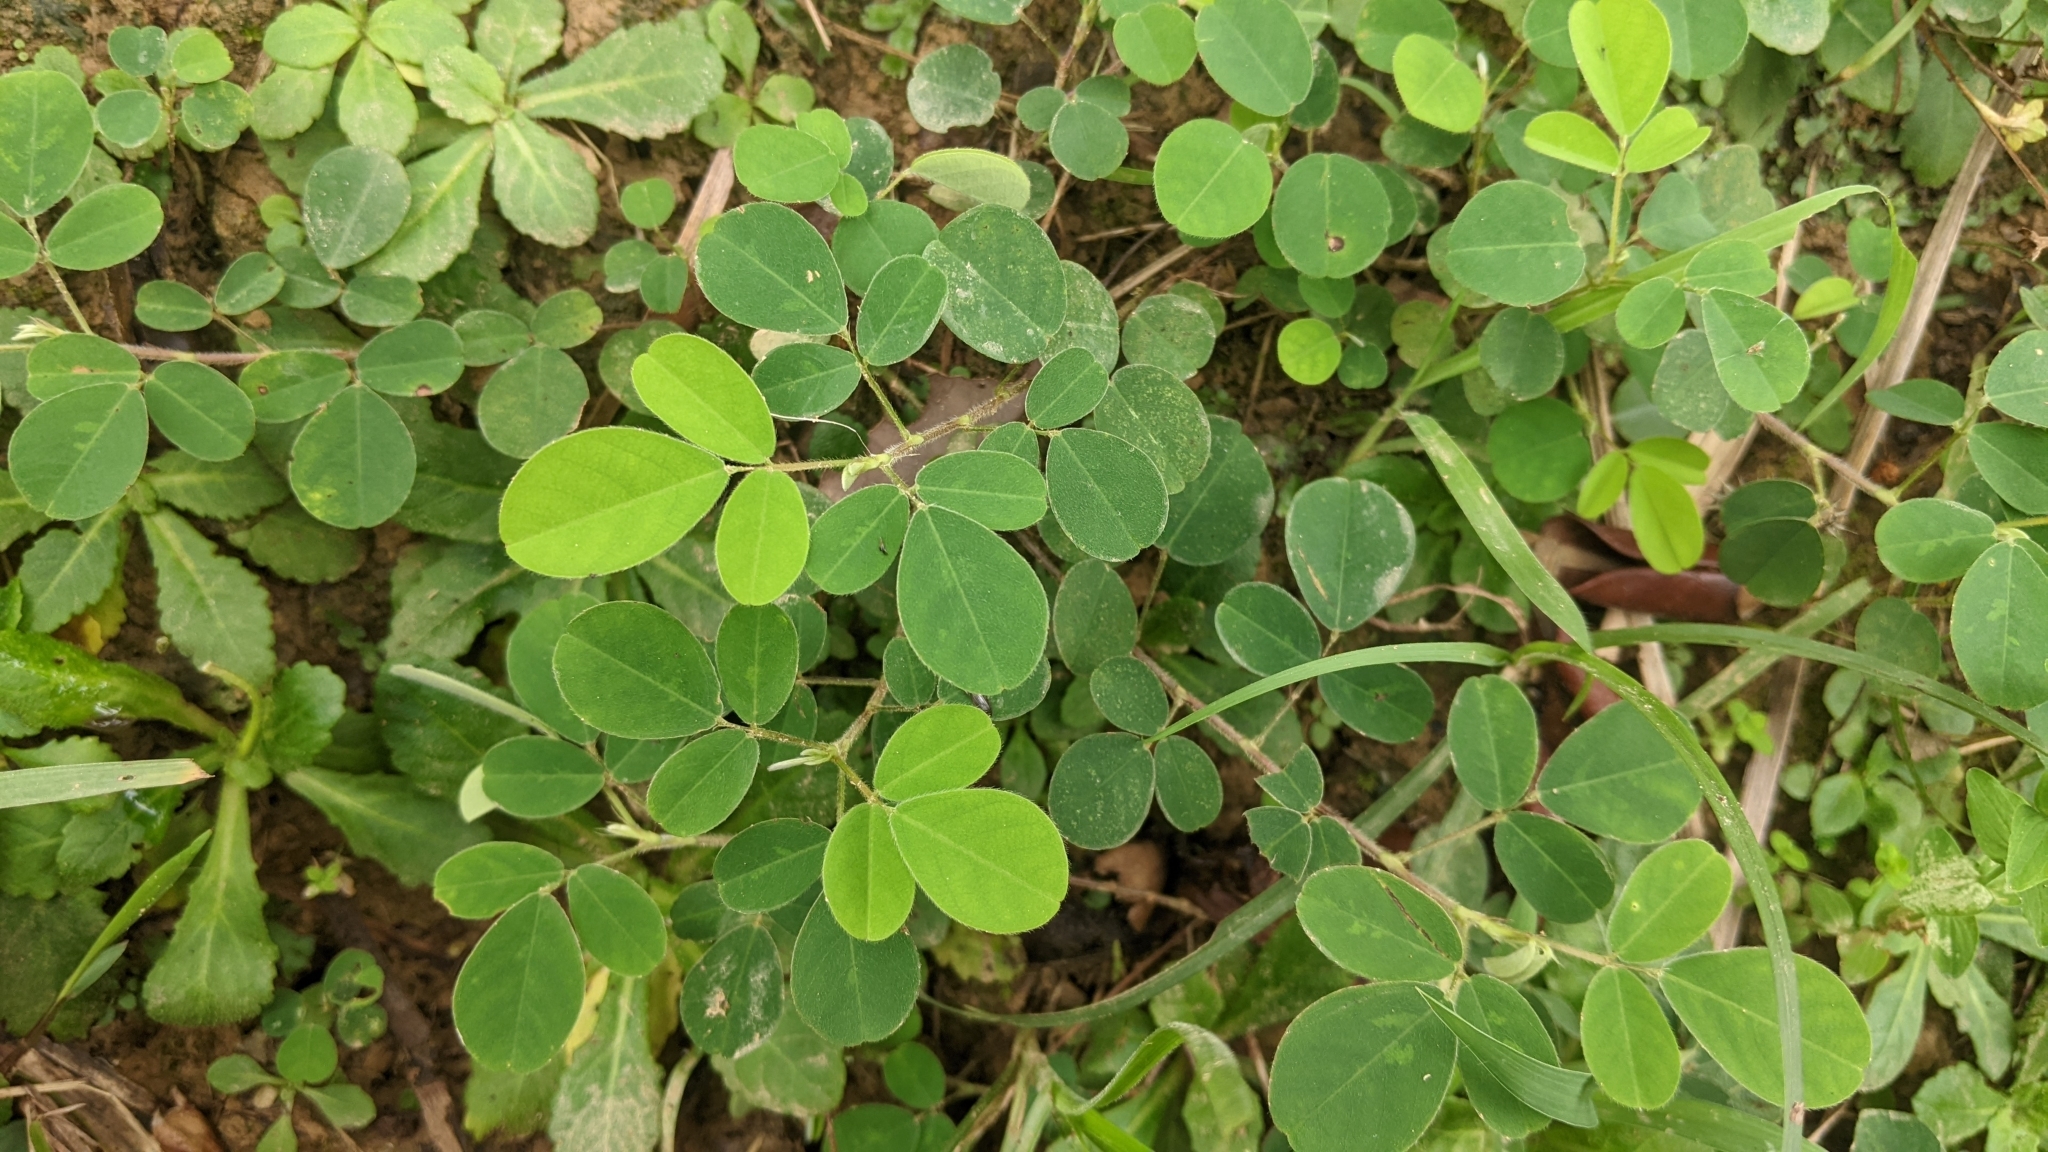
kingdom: Plantae
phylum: Tracheophyta
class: Magnoliopsida
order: Fabales
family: Fabaceae
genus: Grona
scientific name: Grona heterocarpos
